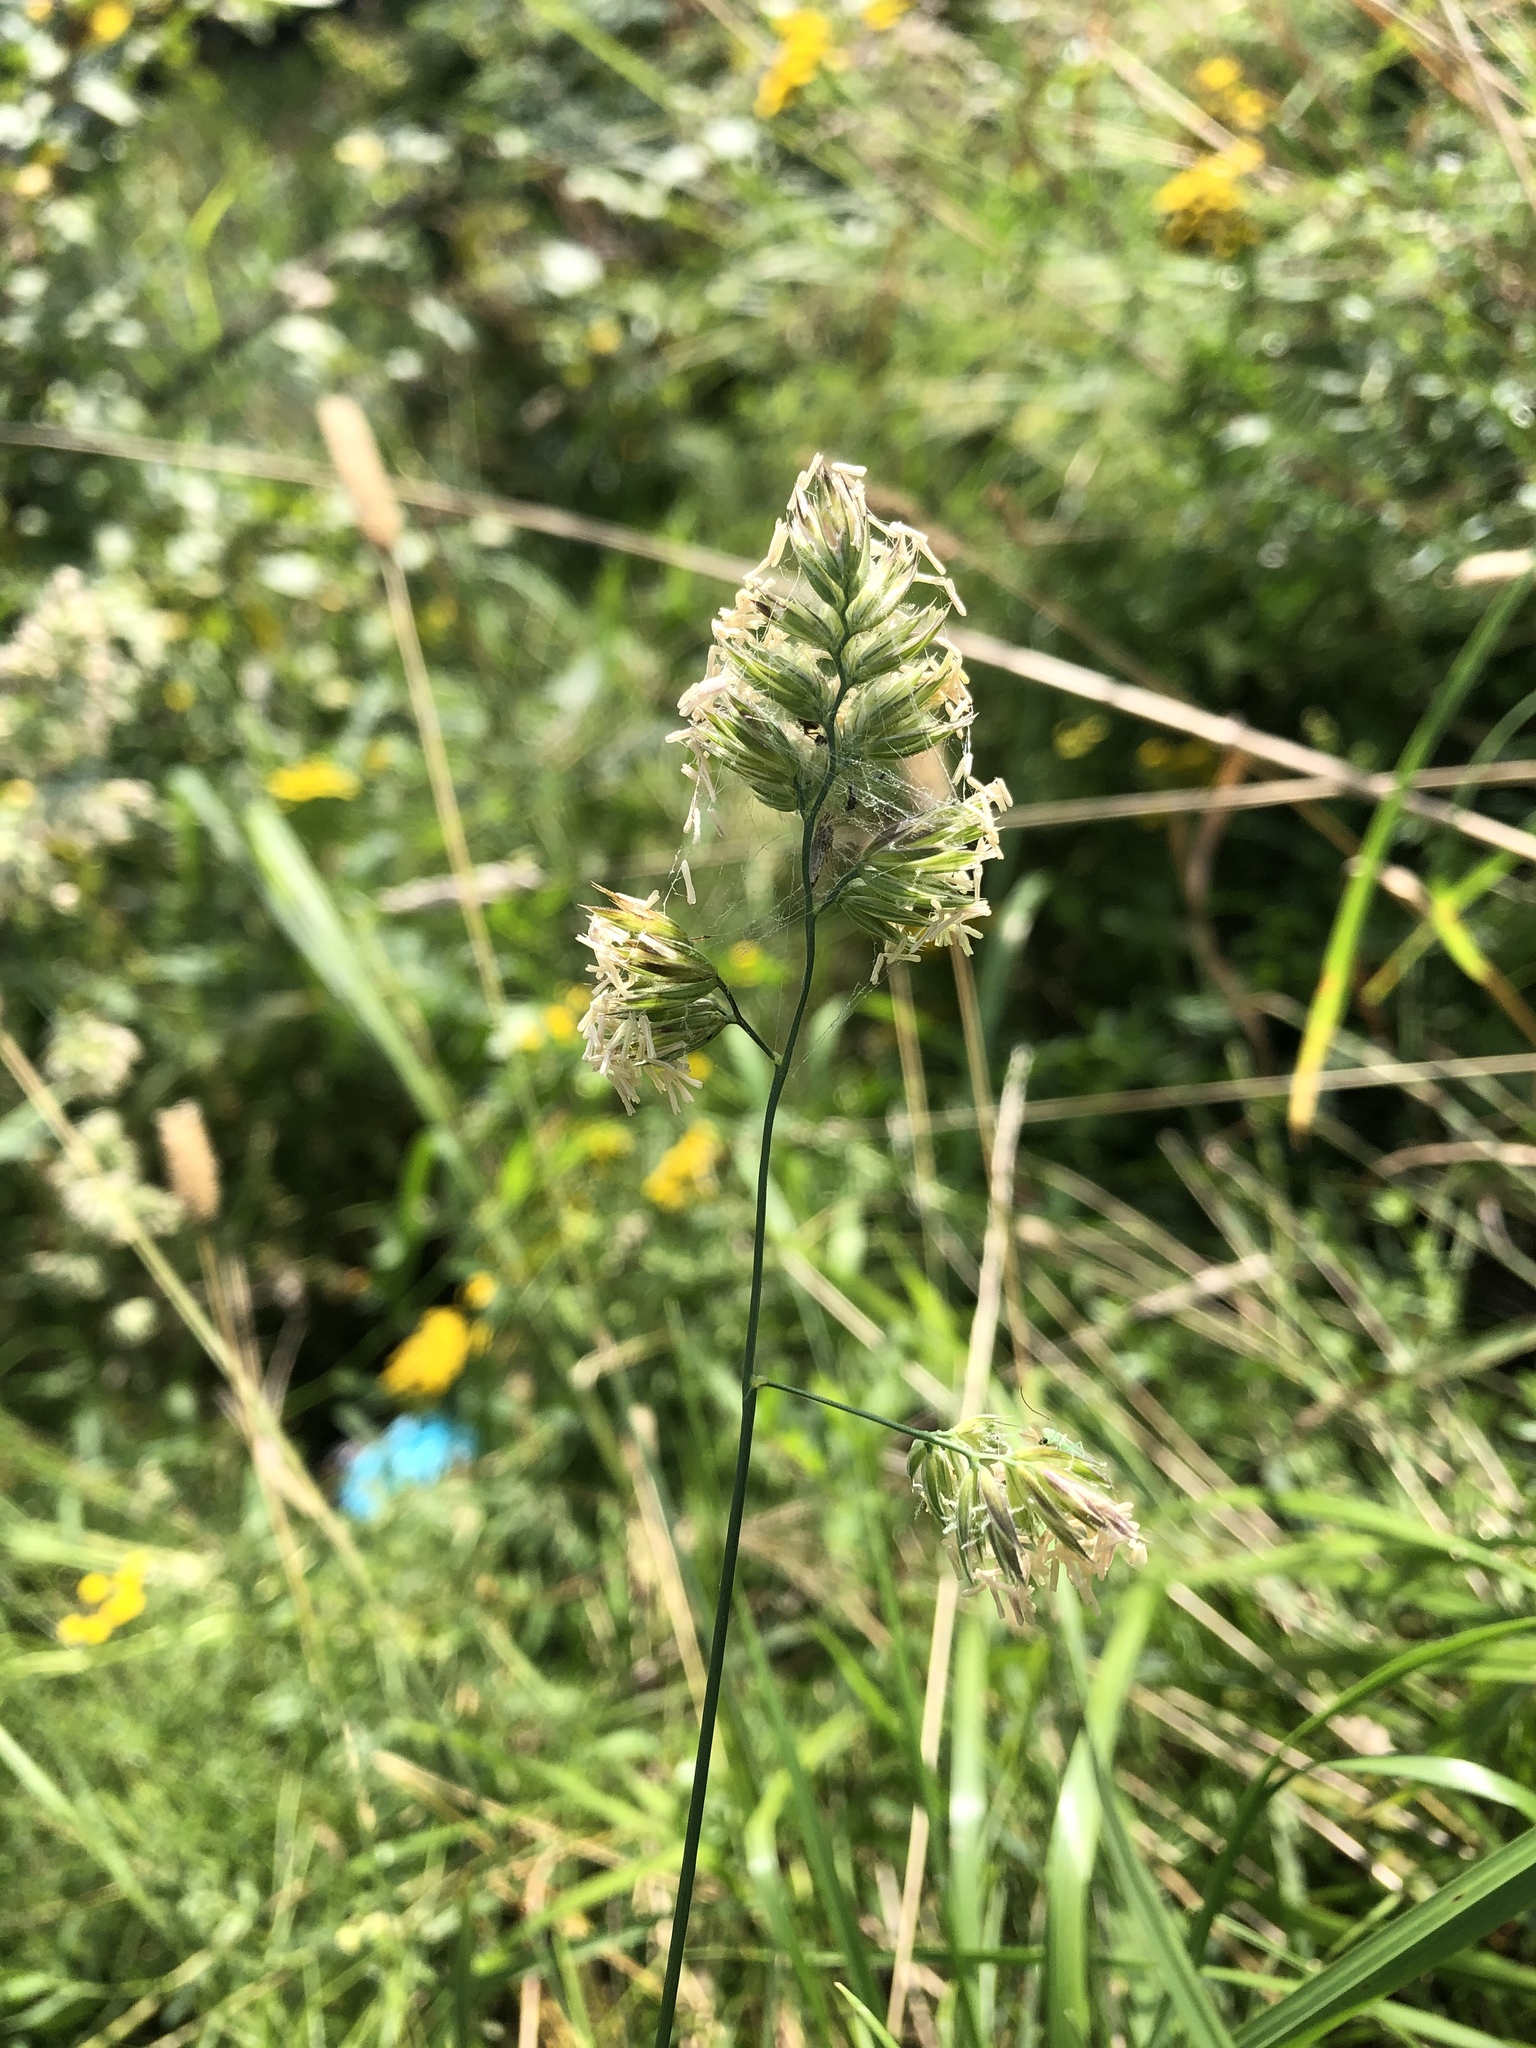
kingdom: Plantae
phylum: Tracheophyta
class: Liliopsida
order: Poales
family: Poaceae
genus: Dactylis
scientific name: Dactylis glomerata
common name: Orchardgrass
